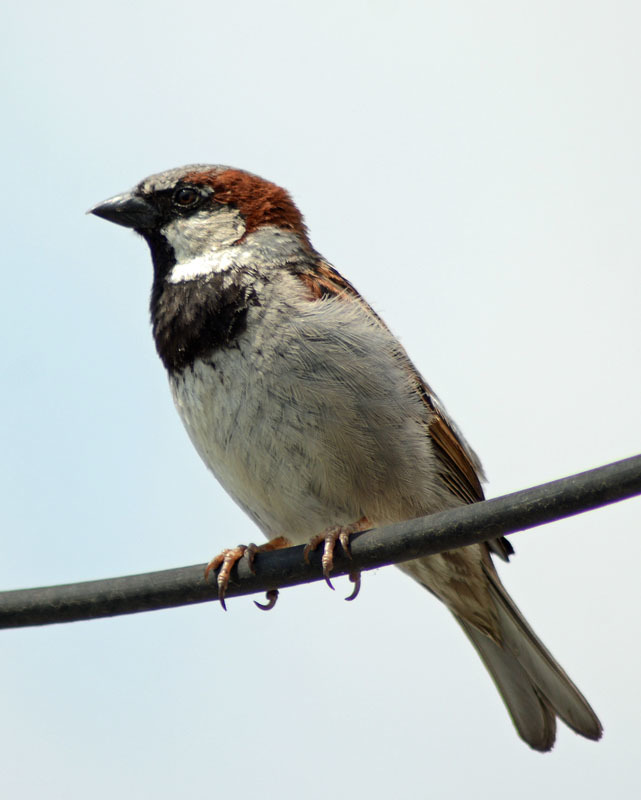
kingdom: Animalia
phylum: Chordata
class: Aves
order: Passeriformes
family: Passeridae
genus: Passer
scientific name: Passer domesticus
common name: House sparrow
